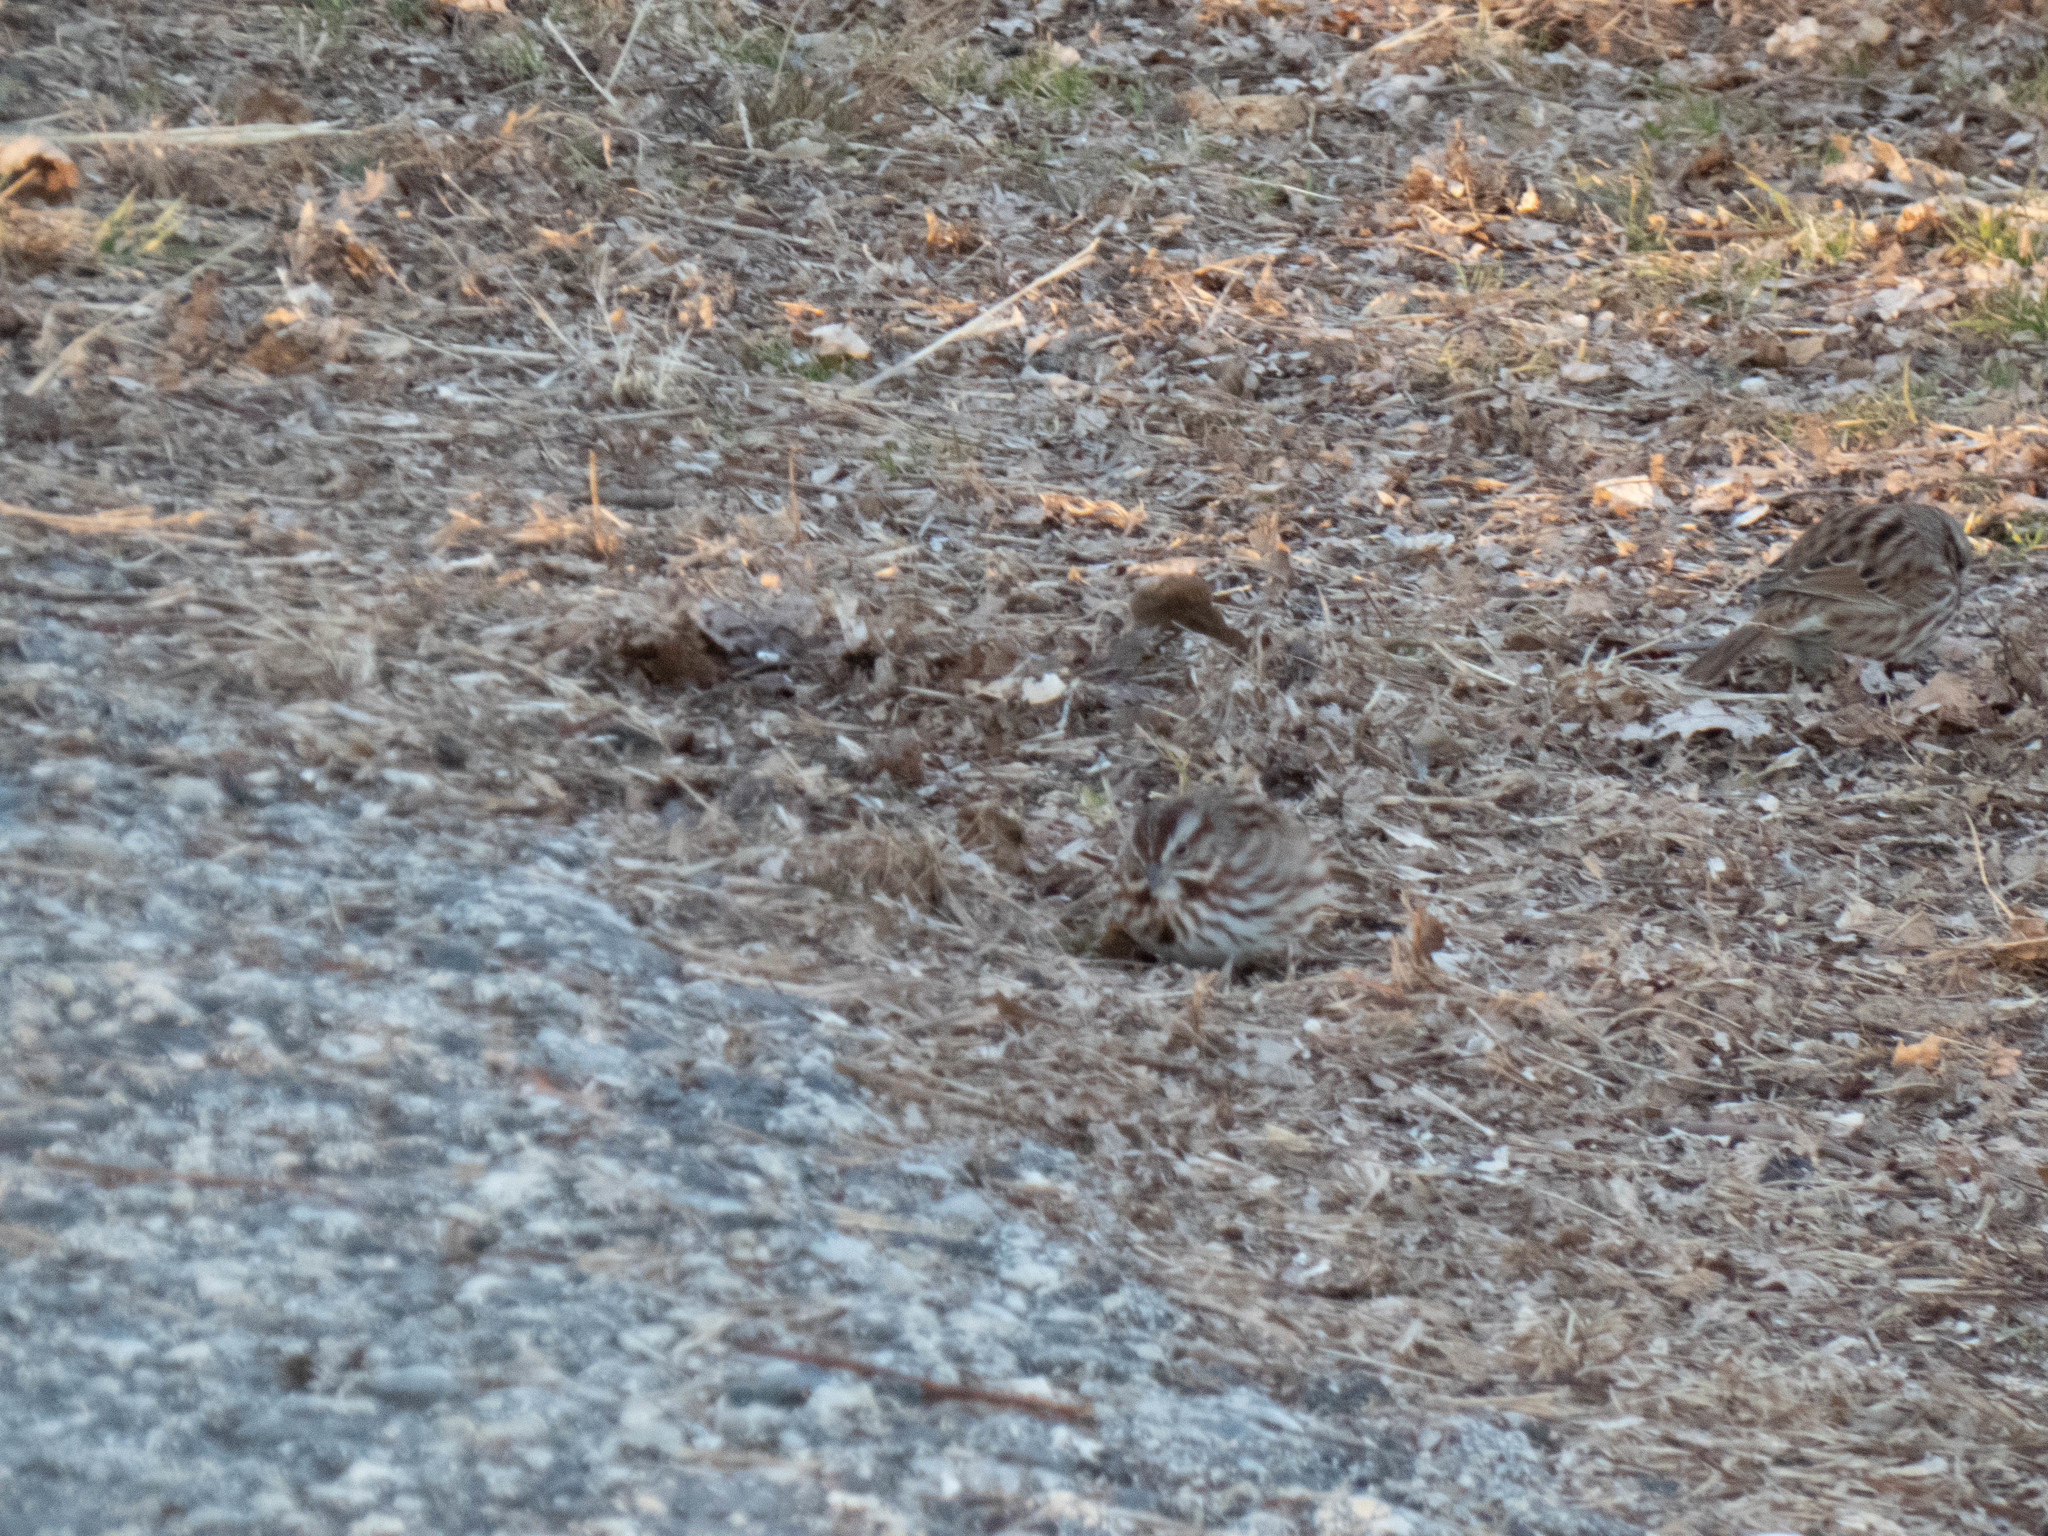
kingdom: Animalia
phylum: Chordata
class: Aves
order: Passeriformes
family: Passerellidae
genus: Melospiza
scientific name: Melospiza melodia
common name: Song sparrow
